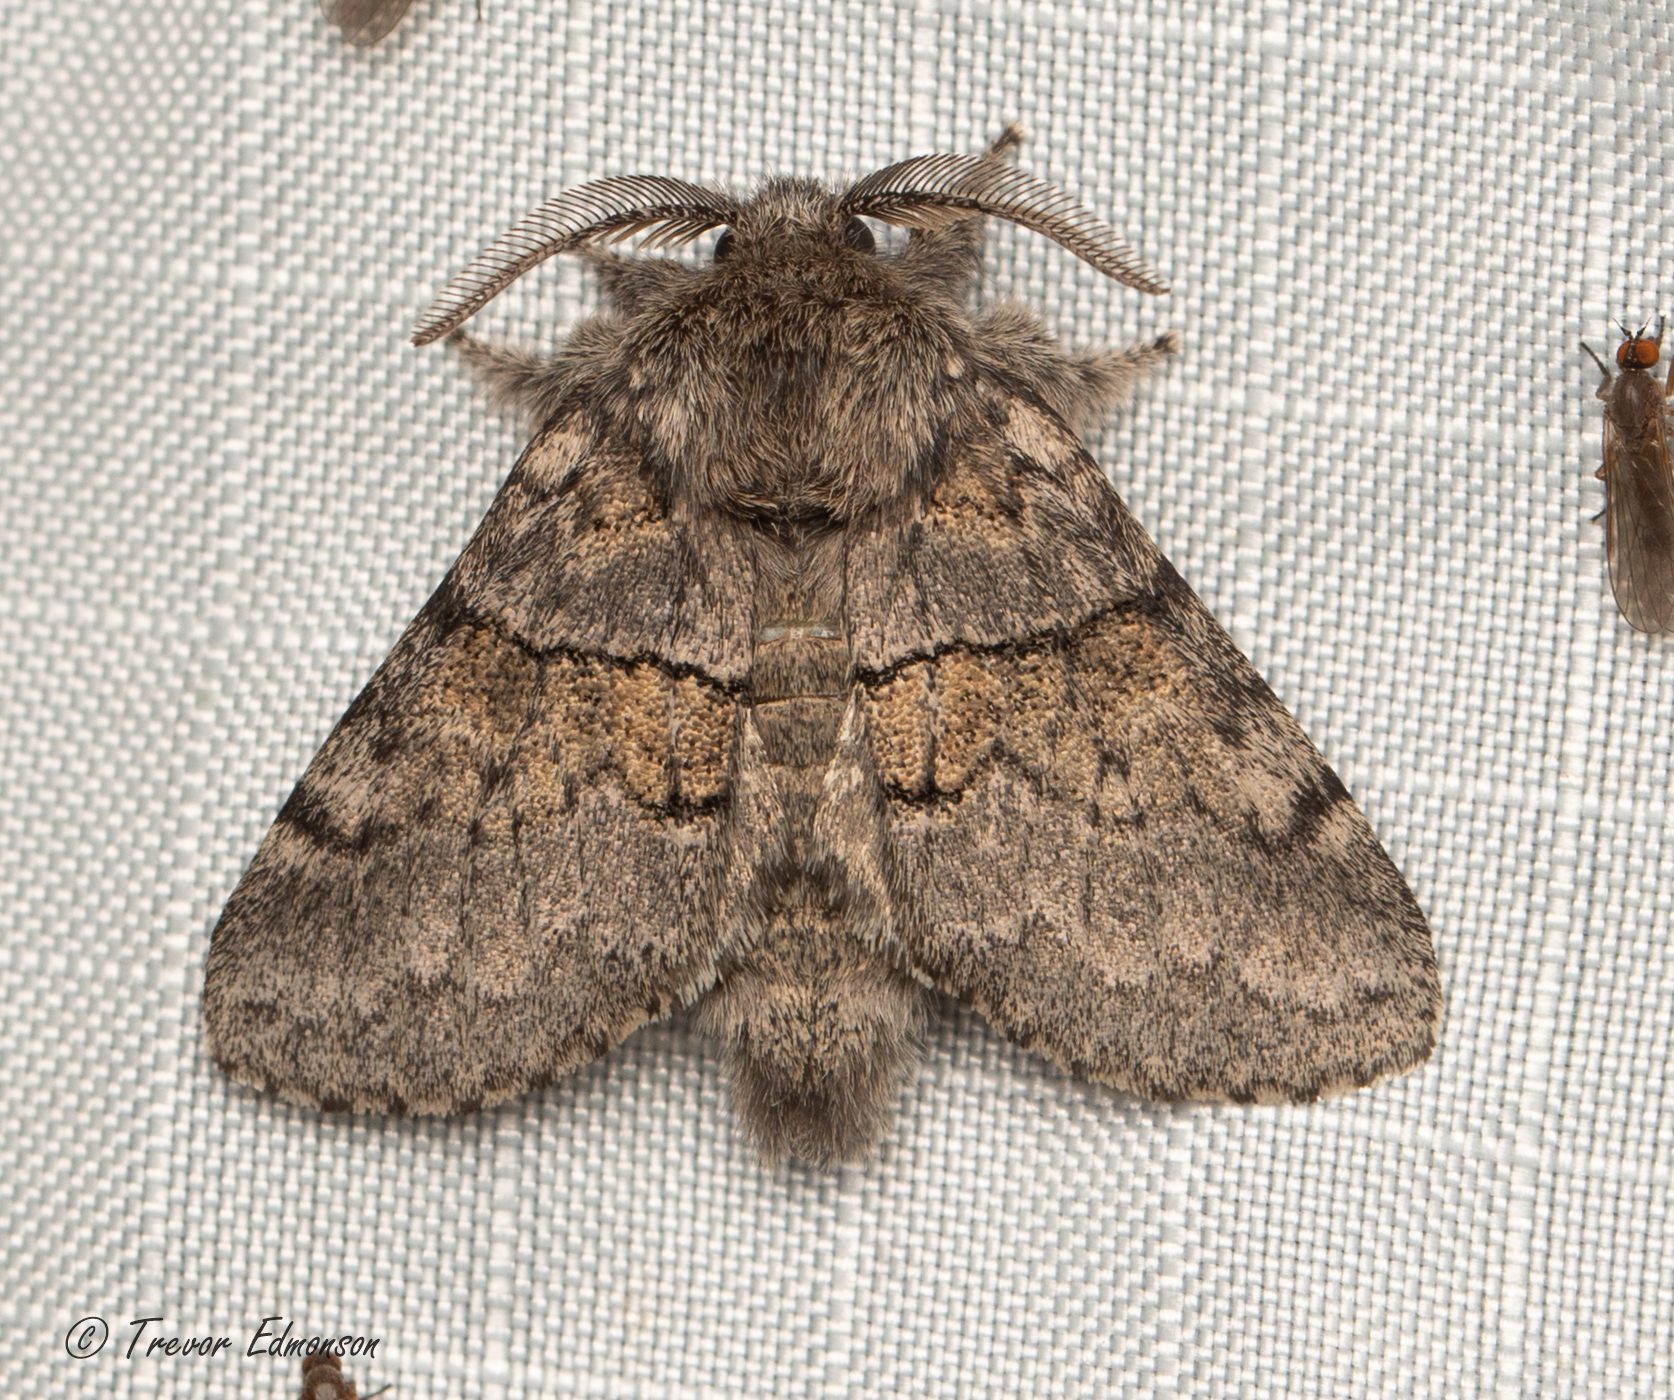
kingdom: Animalia
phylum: Arthropoda
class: Insecta
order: Lepidoptera
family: Notodontidae
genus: Gluphisia
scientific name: Gluphisia septentrionis
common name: Common gluphisia
